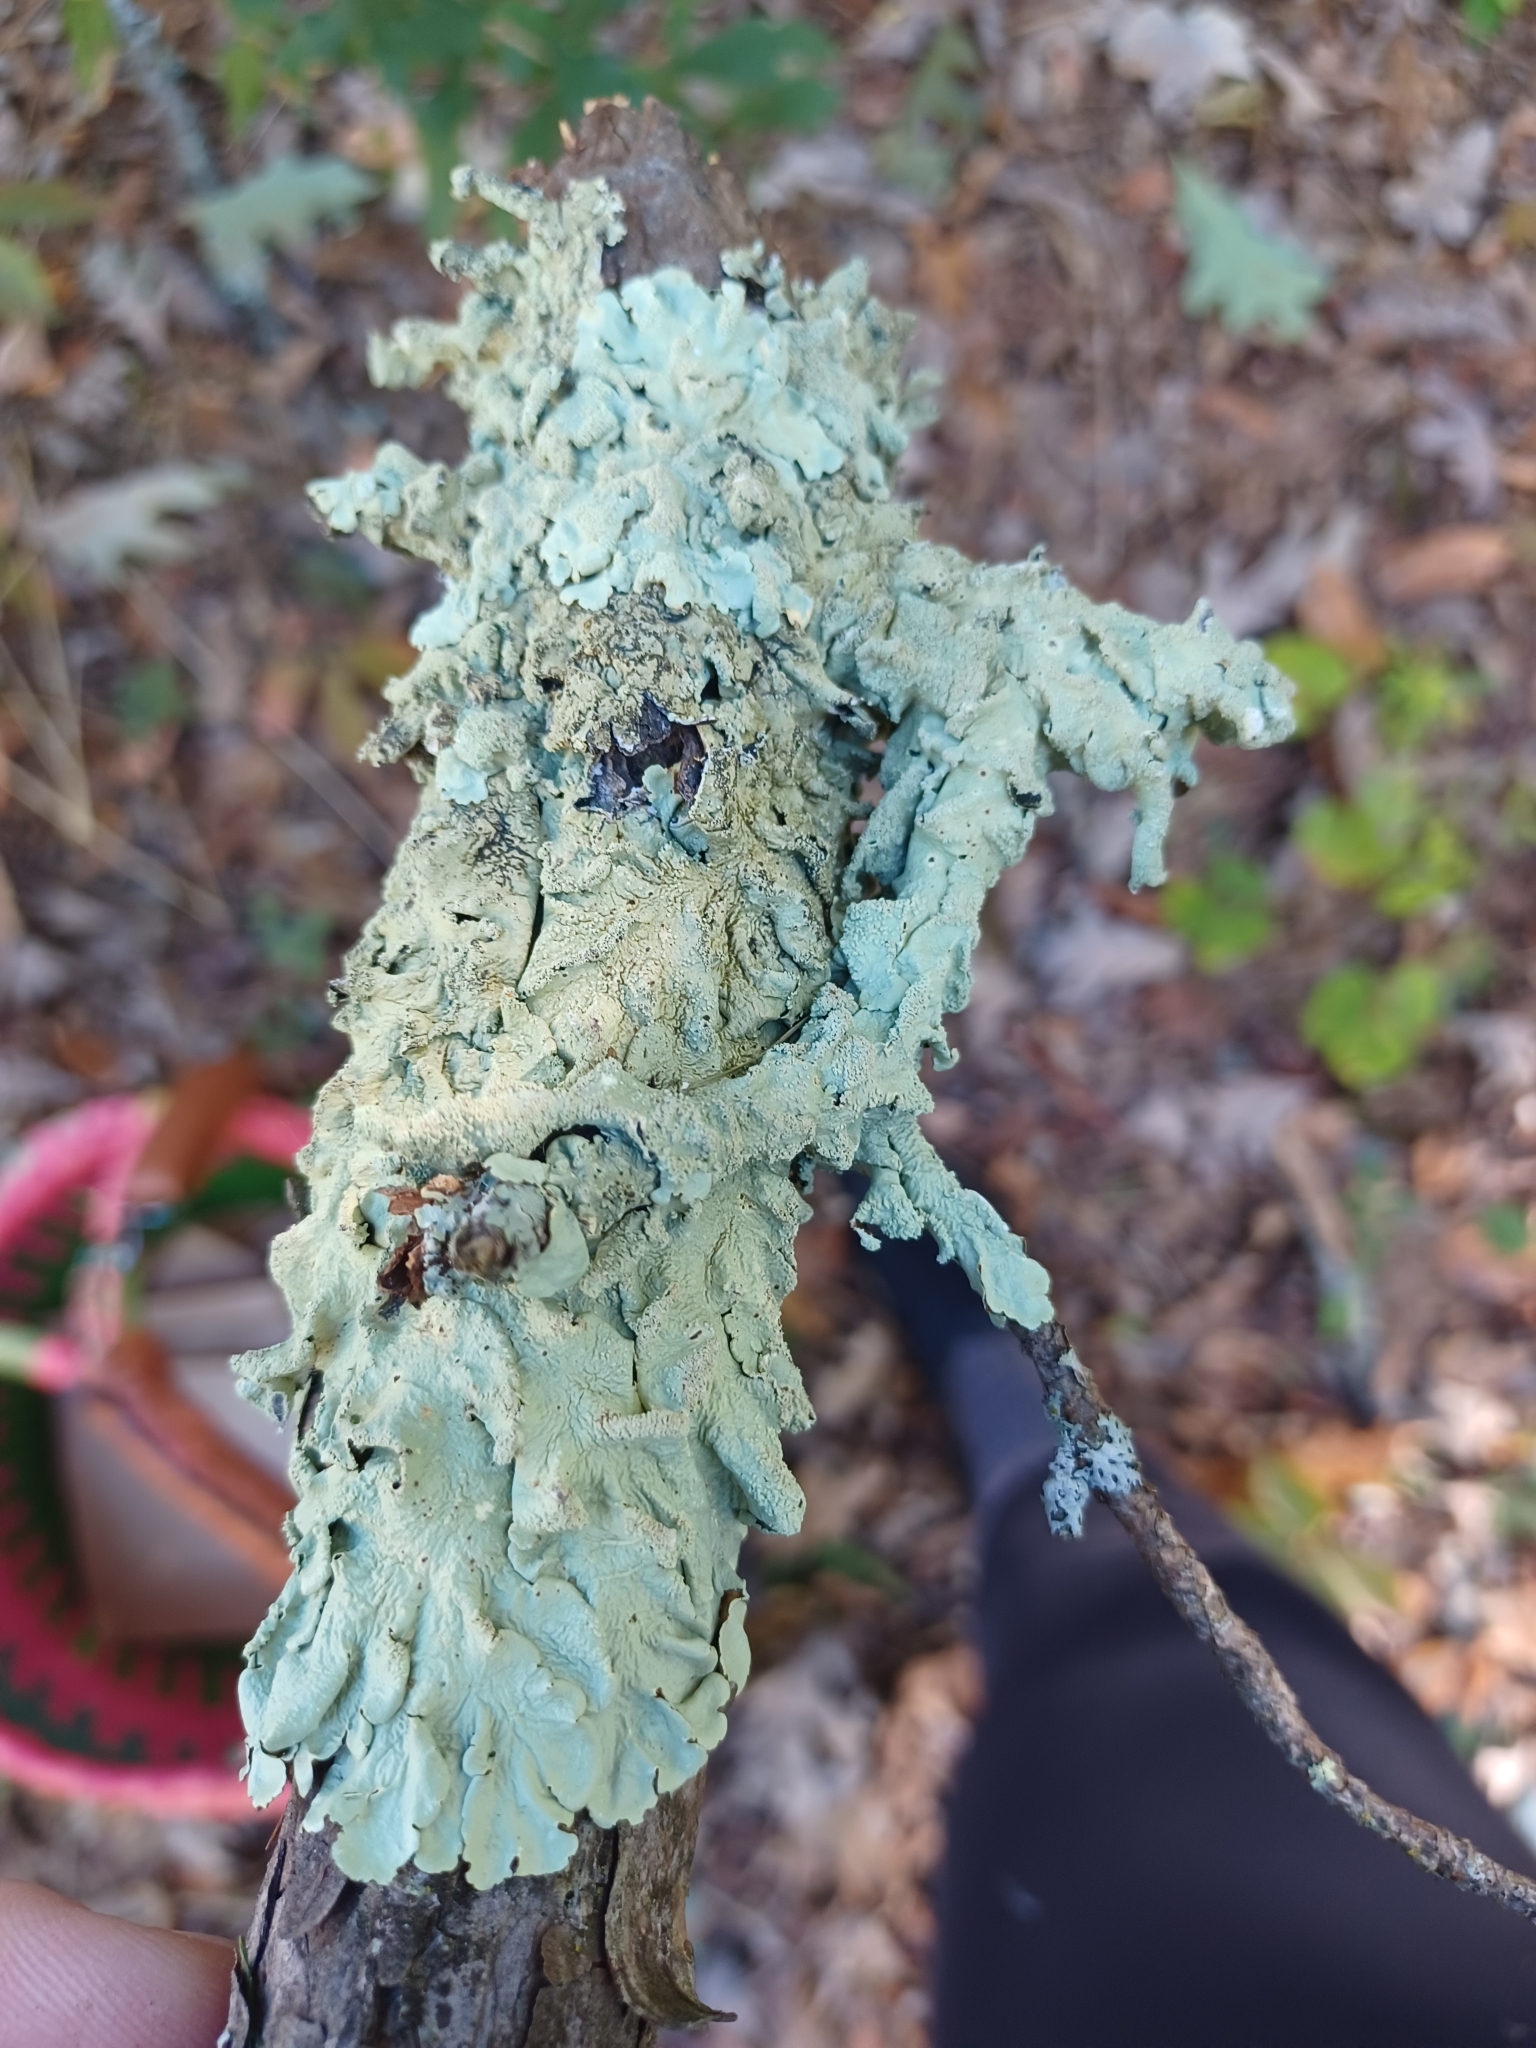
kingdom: Fungi
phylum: Ascomycota
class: Lecanoromycetes
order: Lecanorales
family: Parmeliaceae
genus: Flavoparmelia
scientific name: Flavoparmelia caperata
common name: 40-mile per hour lichen
